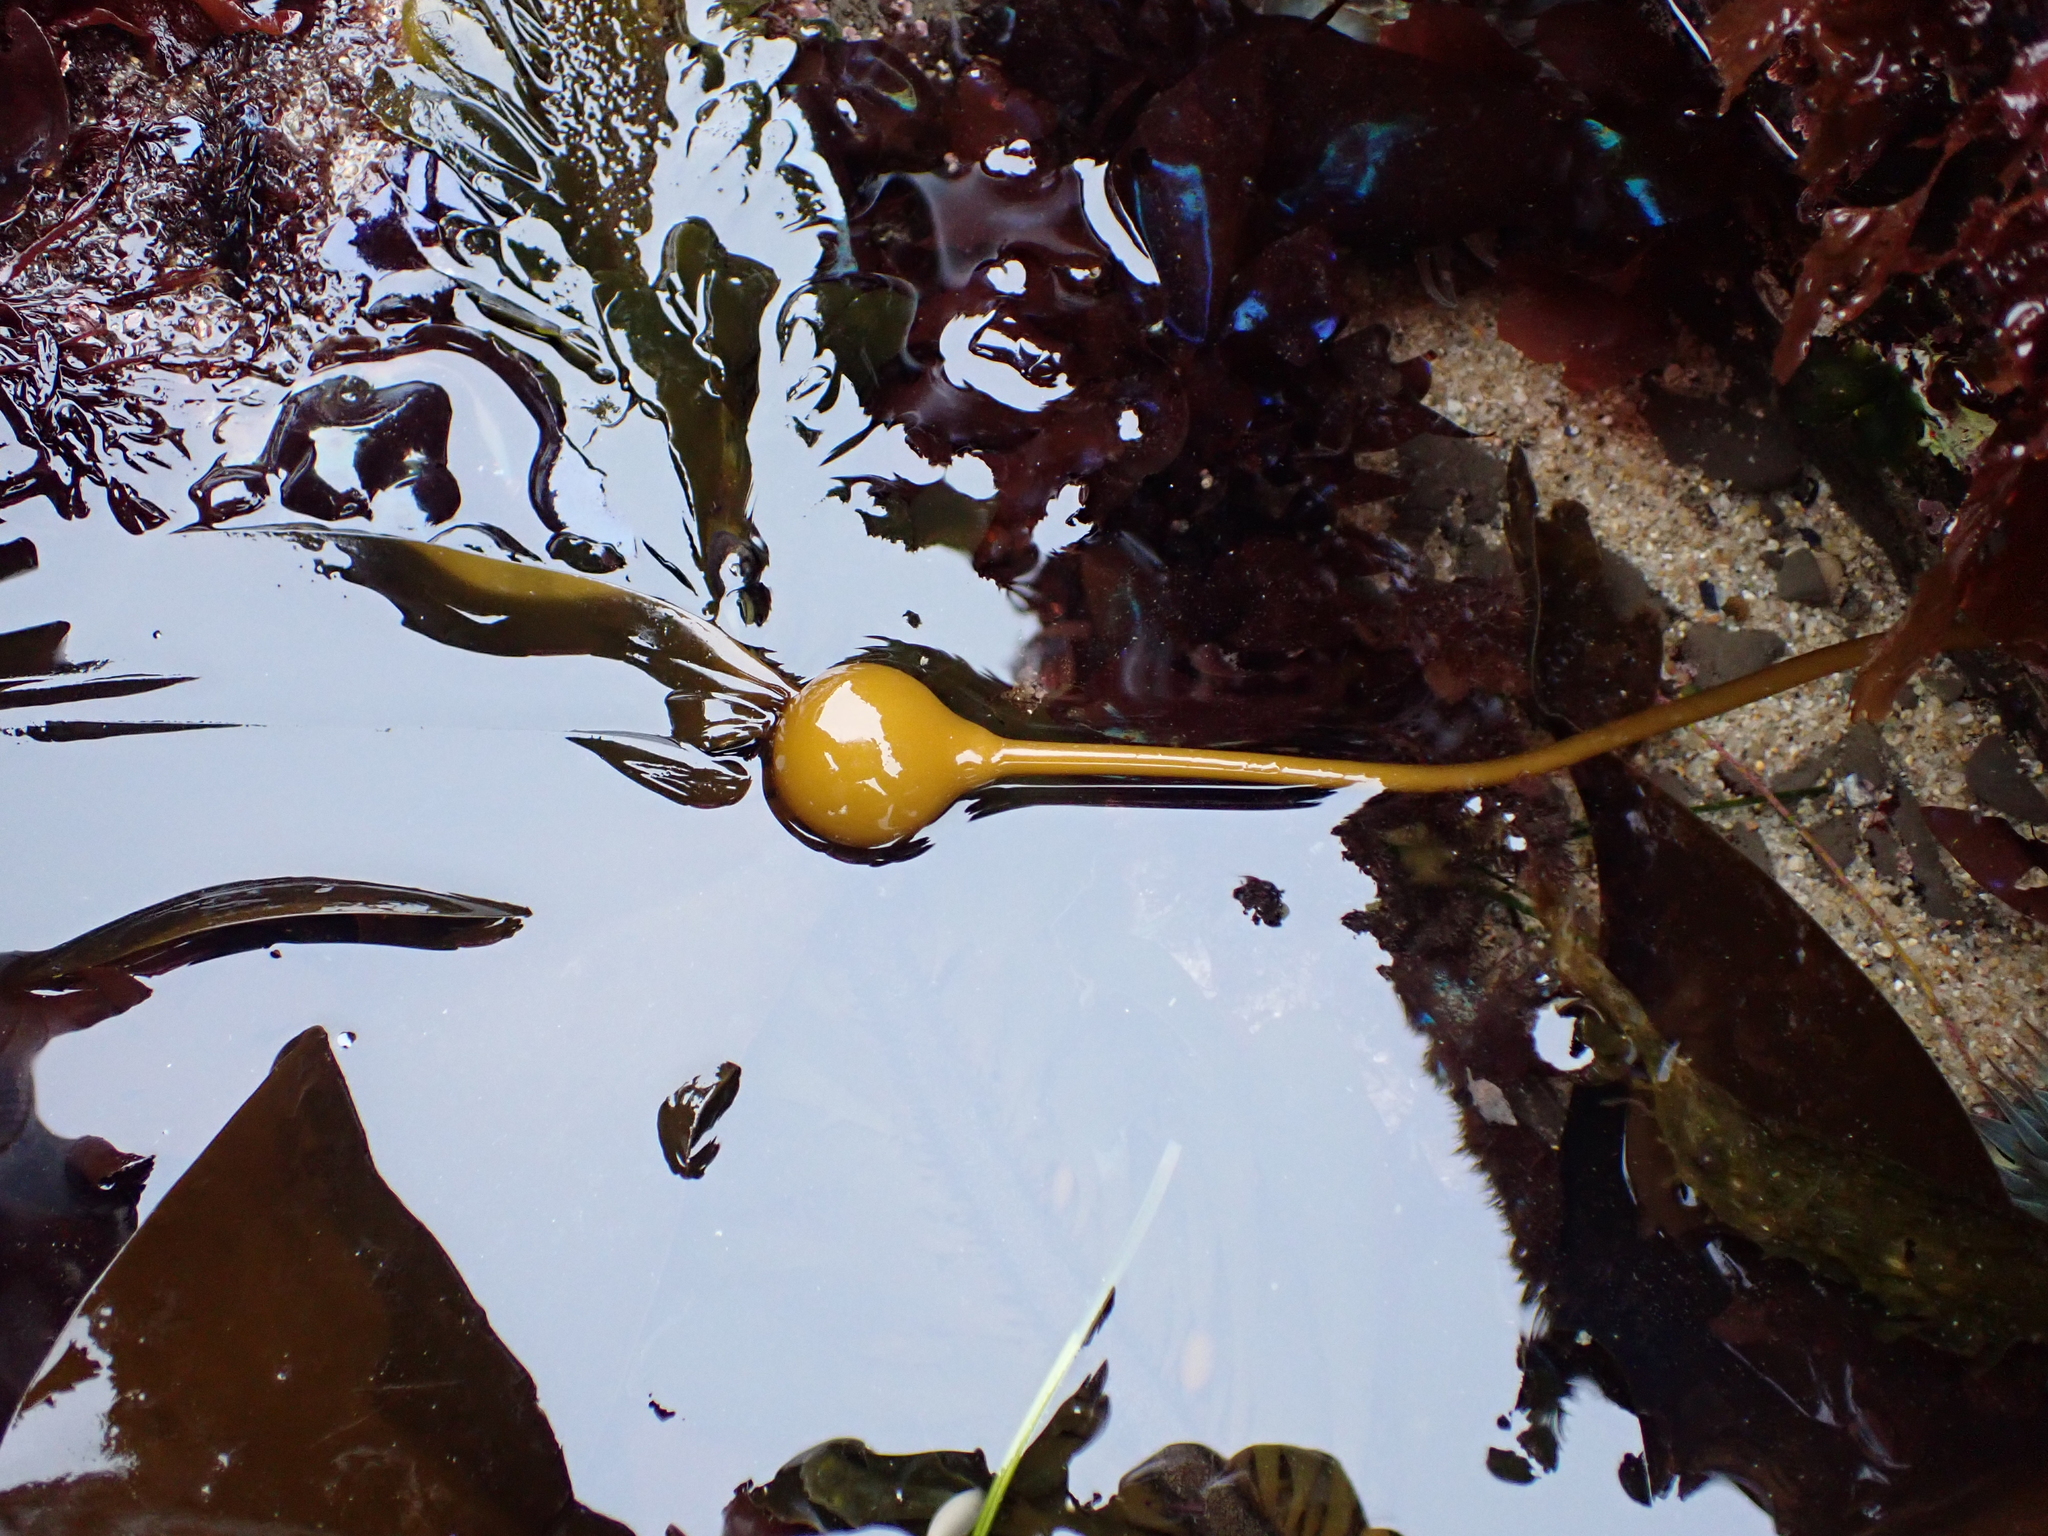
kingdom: Chromista
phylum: Ochrophyta
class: Phaeophyceae
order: Laminariales
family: Laminariaceae
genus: Nereocystis
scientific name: Nereocystis luetkeana
